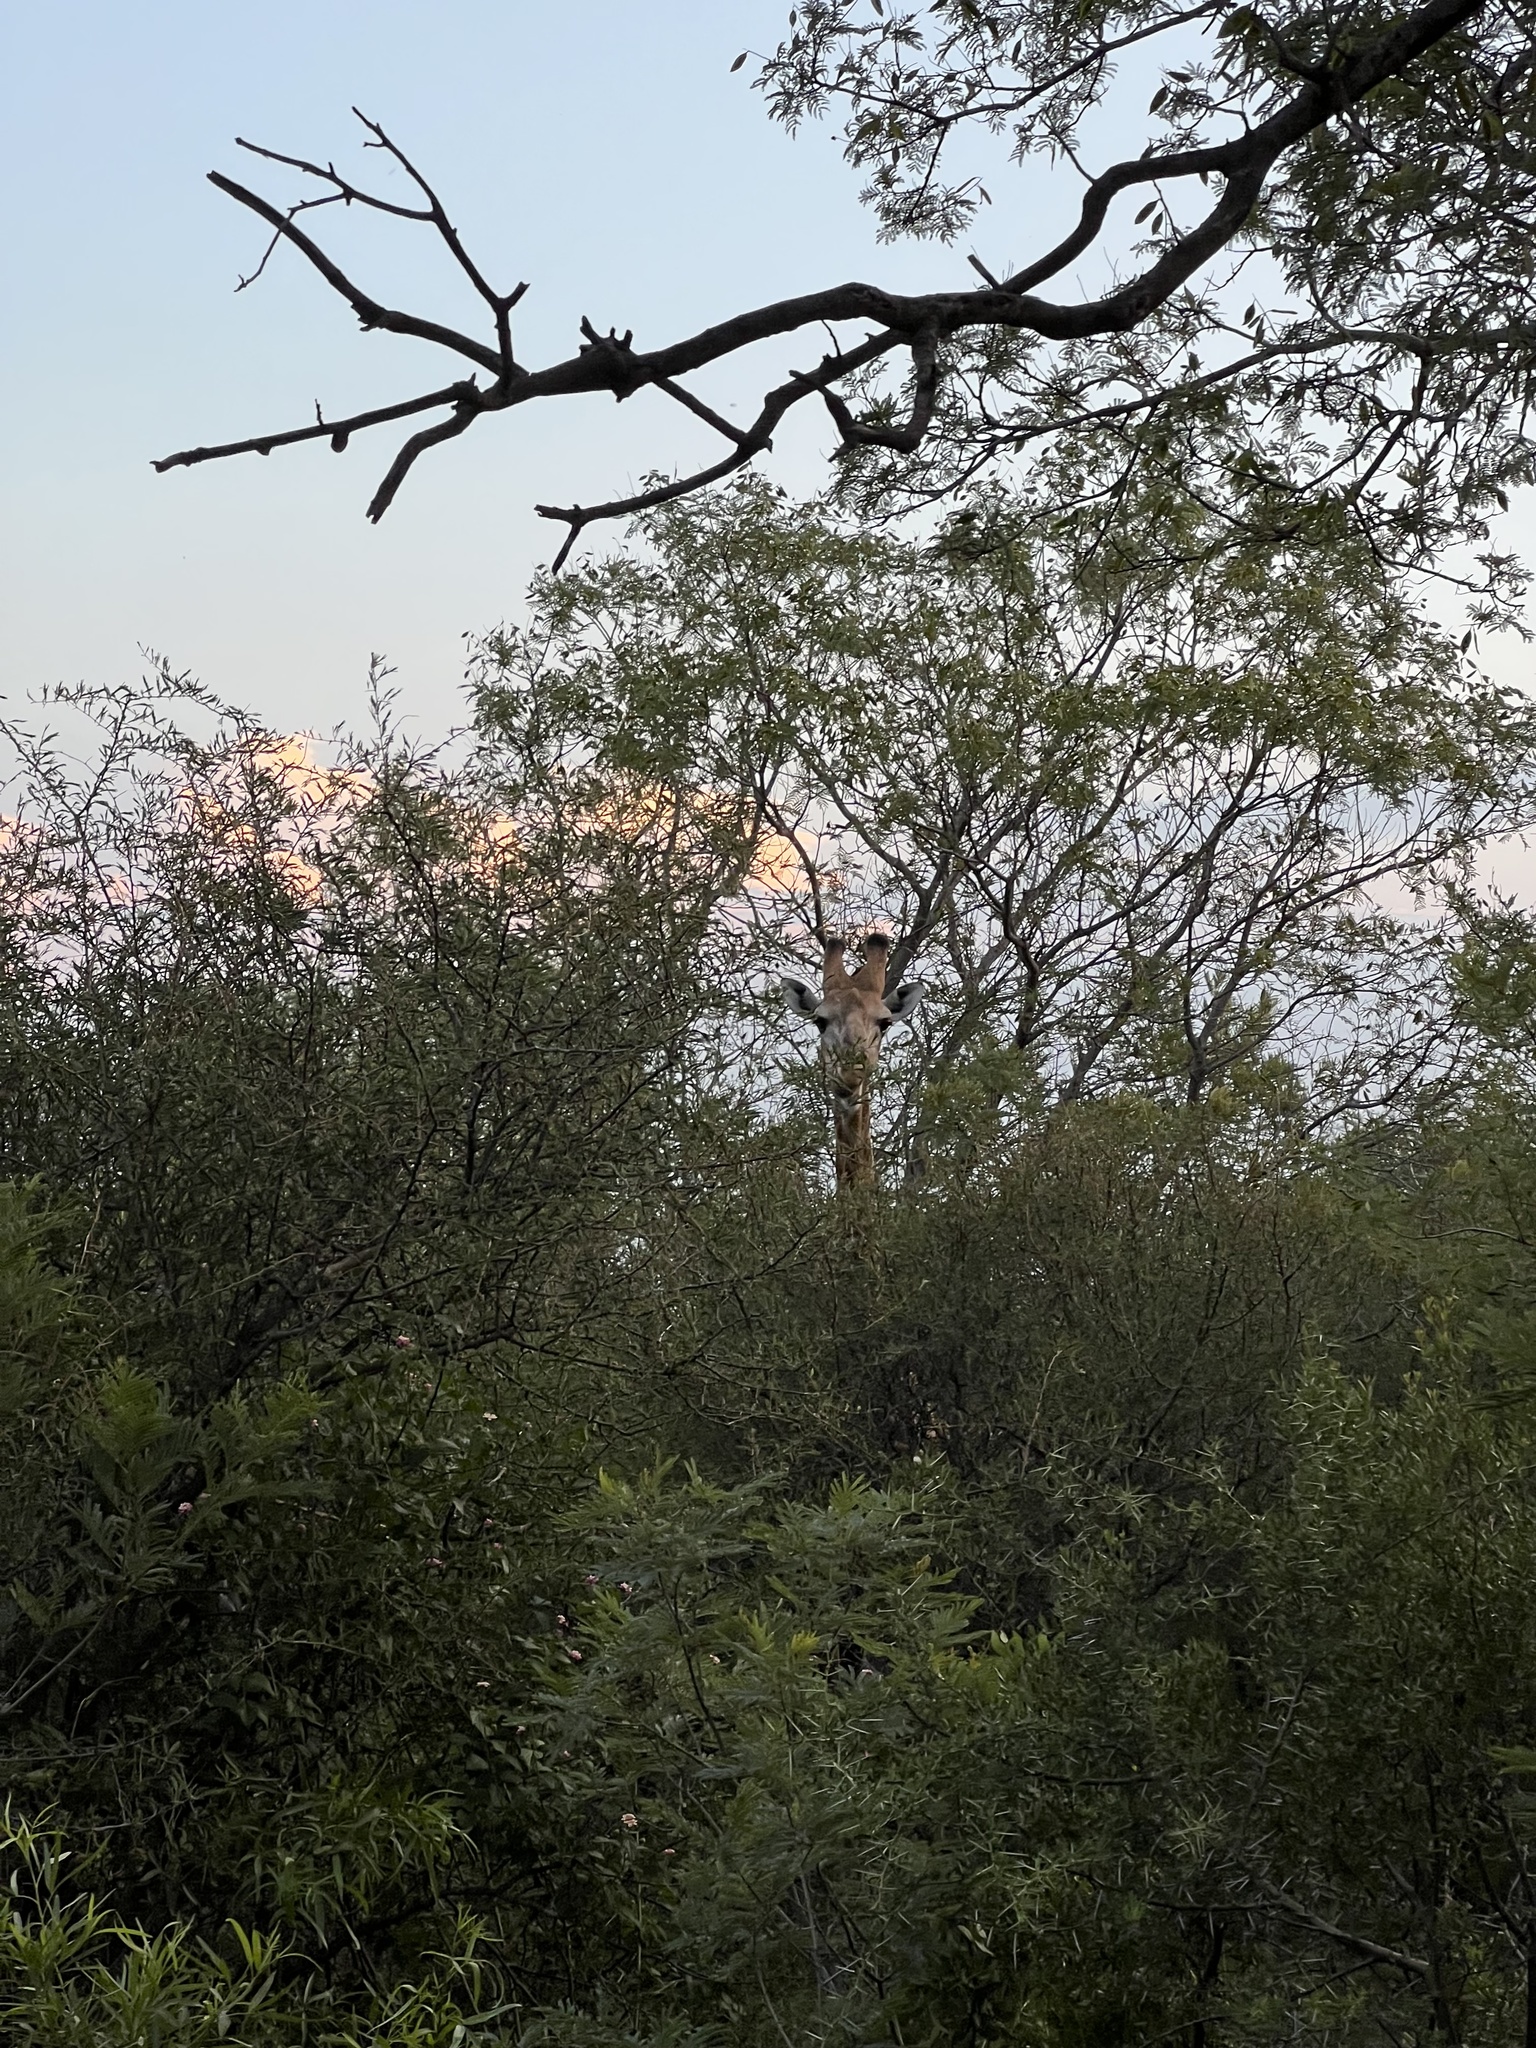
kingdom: Animalia
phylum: Chordata
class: Mammalia
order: Artiodactyla
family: Giraffidae
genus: Giraffa
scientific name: Giraffa giraffa
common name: Southern giraffe
